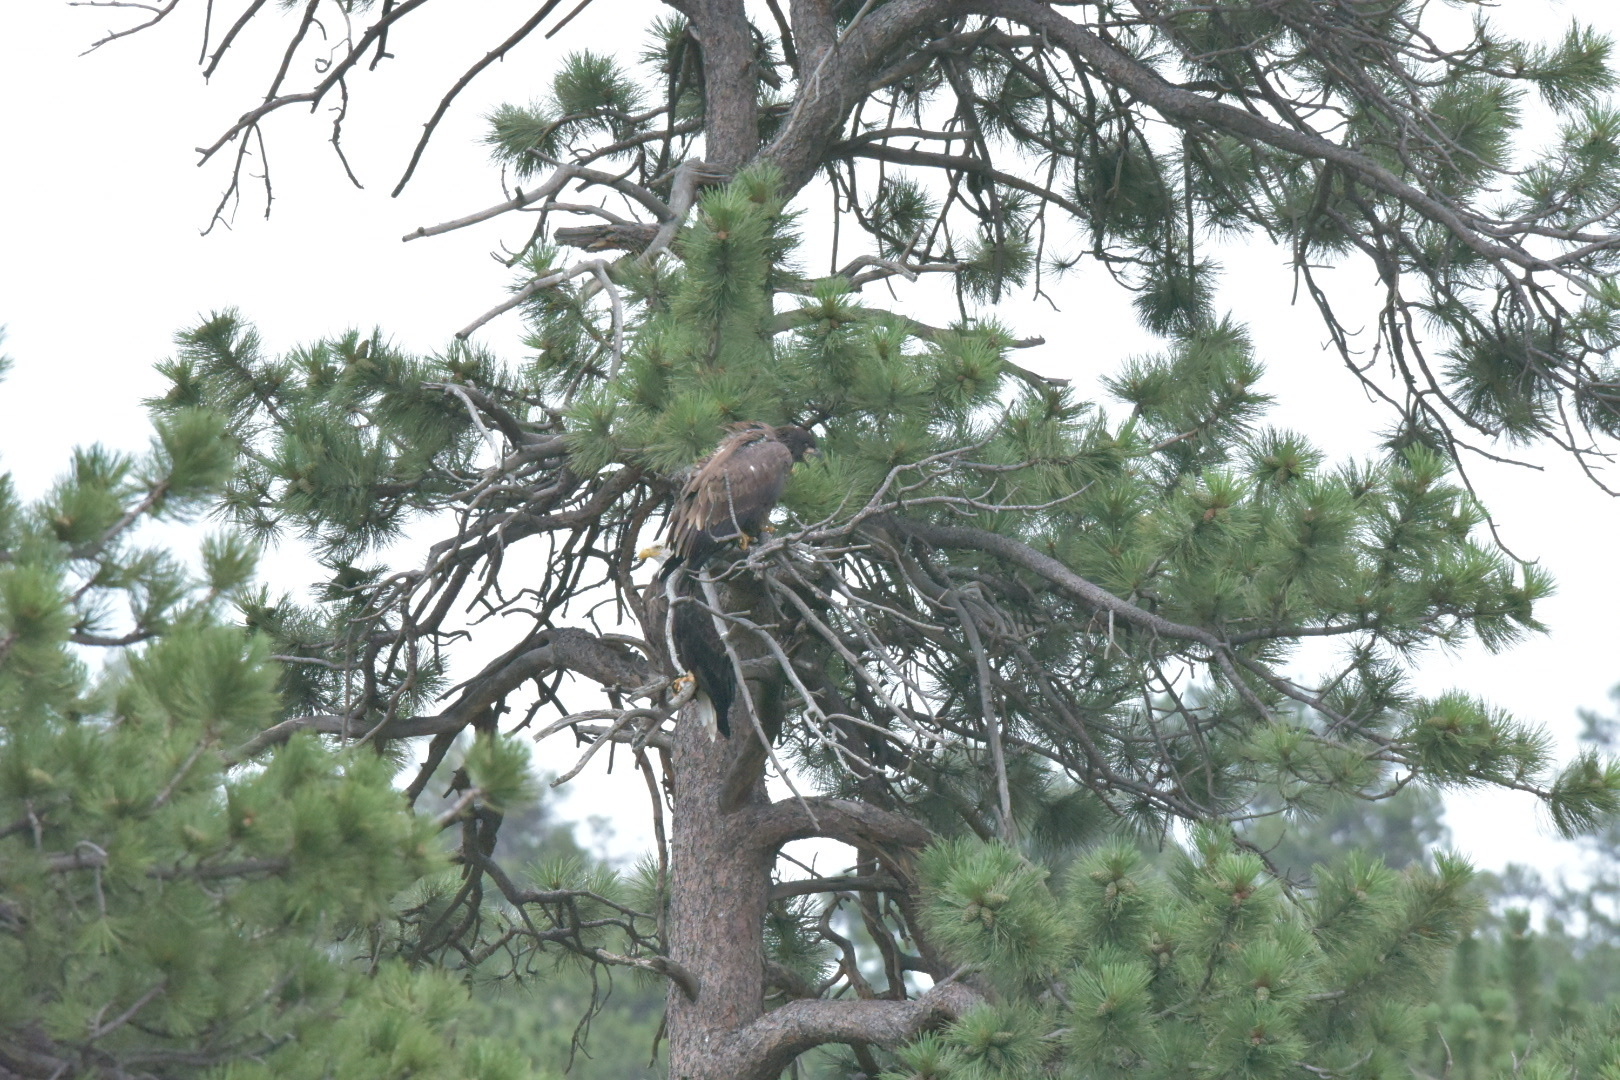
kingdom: Animalia
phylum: Chordata
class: Aves
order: Accipitriformes
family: Accipitridae
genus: Haliaeetus
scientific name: Haliaeetus leucocephalus
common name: Bald eagle
